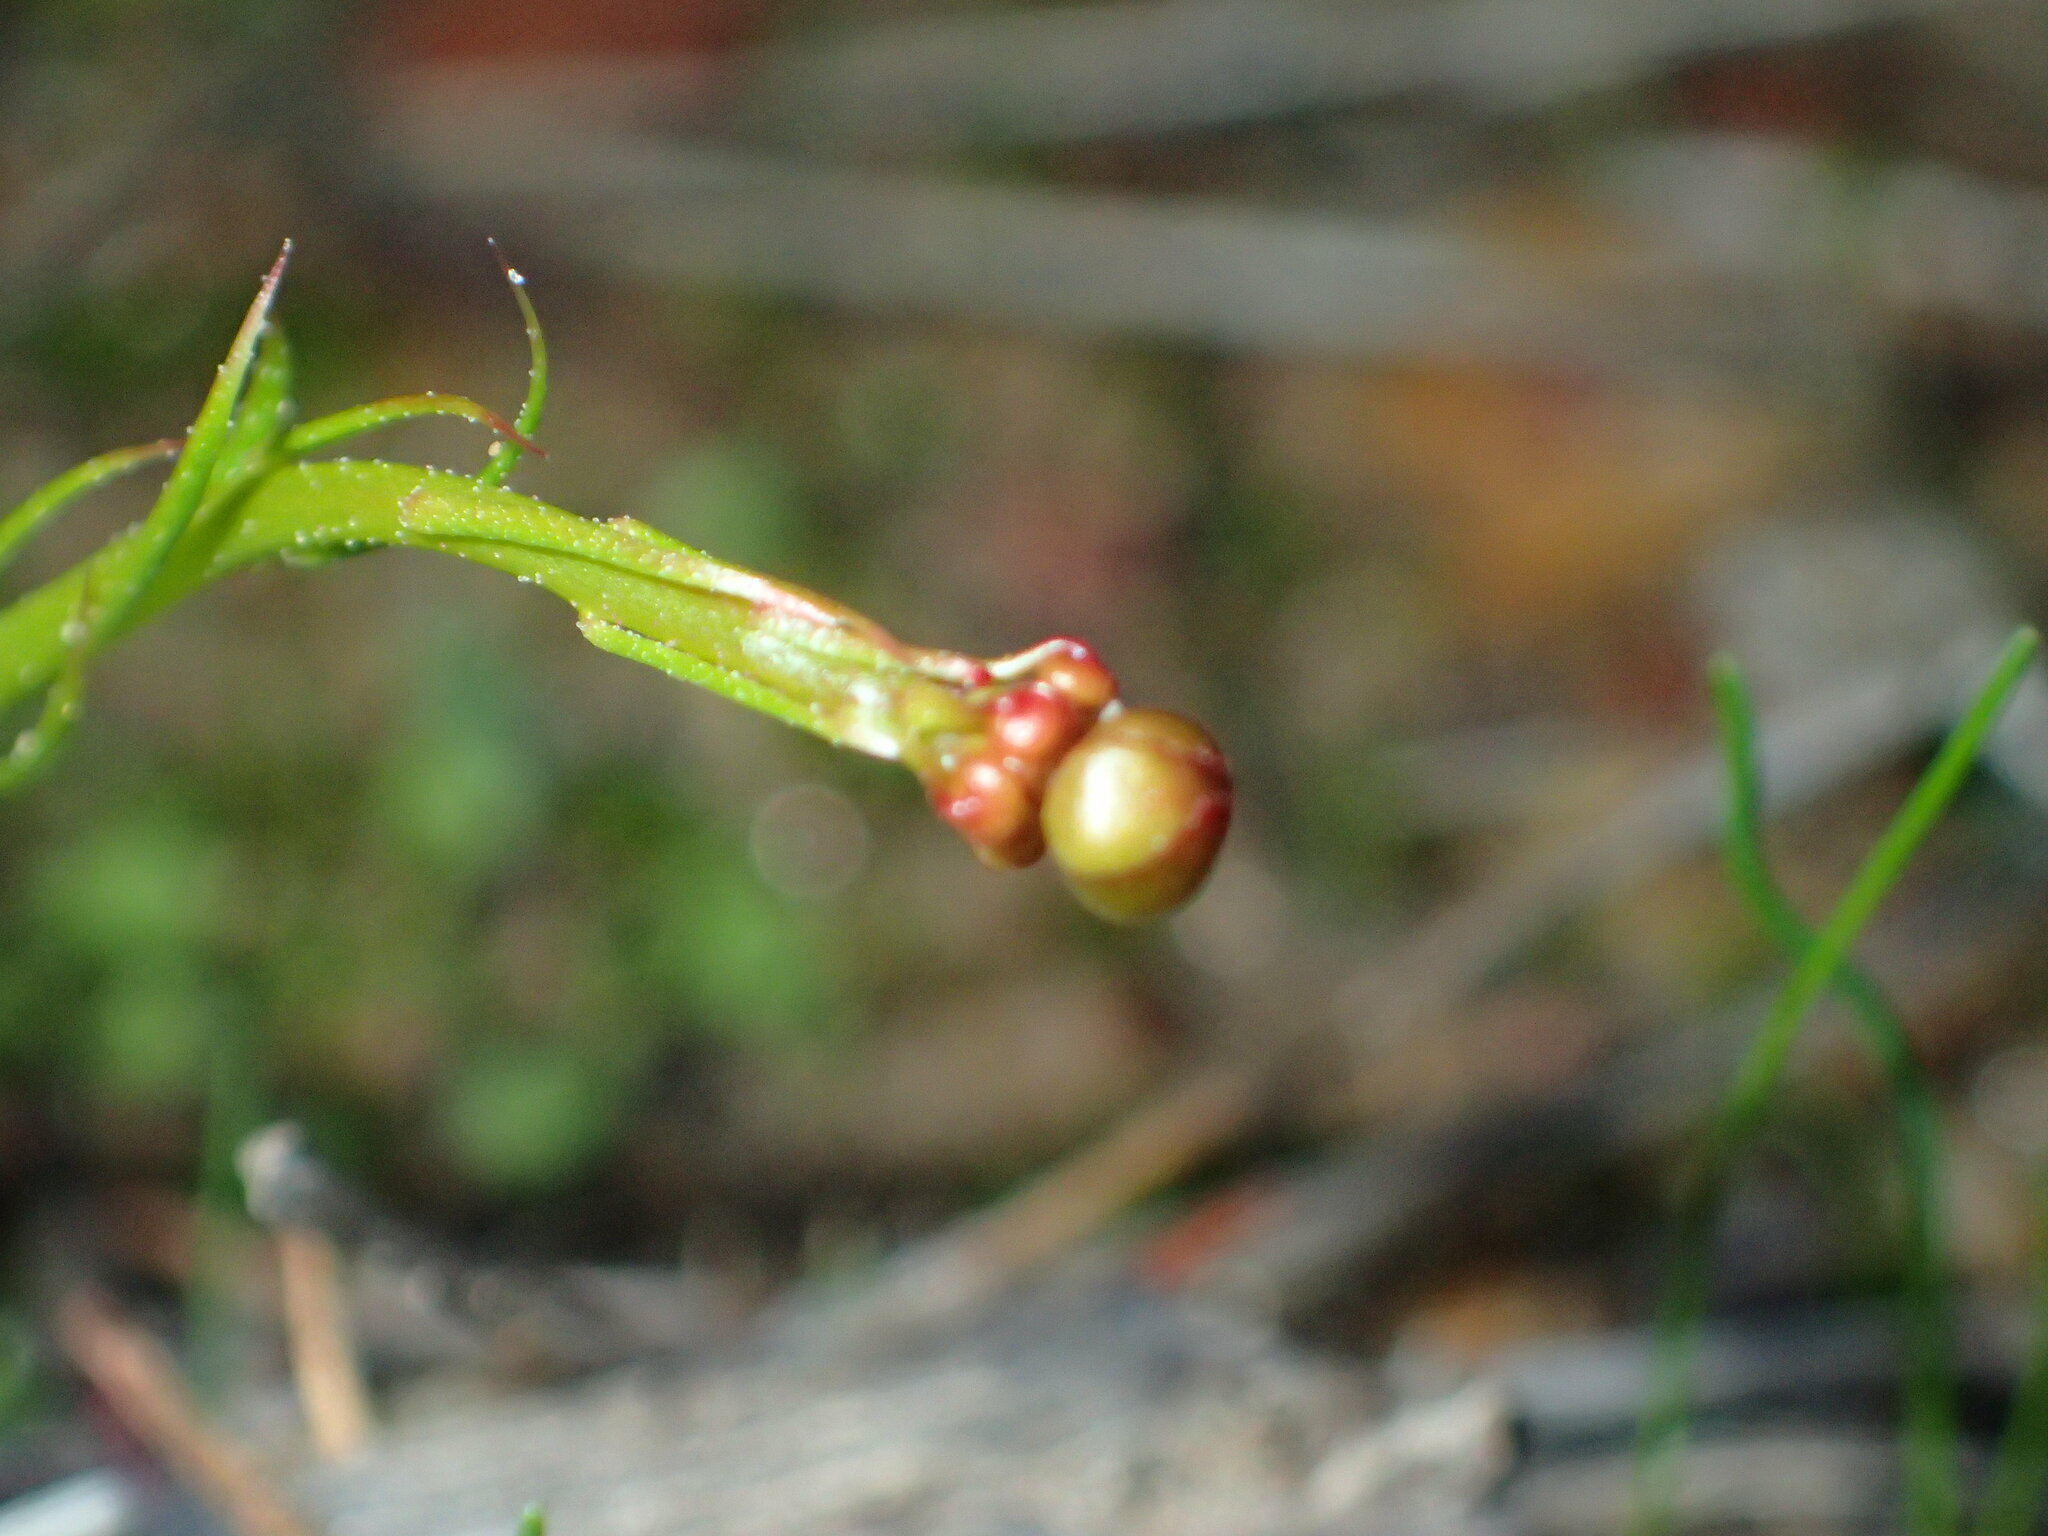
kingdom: Plantae
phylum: Tracheophyta
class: Magnoliopsida
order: Caryophyllales
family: Droseraceae
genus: Drosera
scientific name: Drosera marchantii
